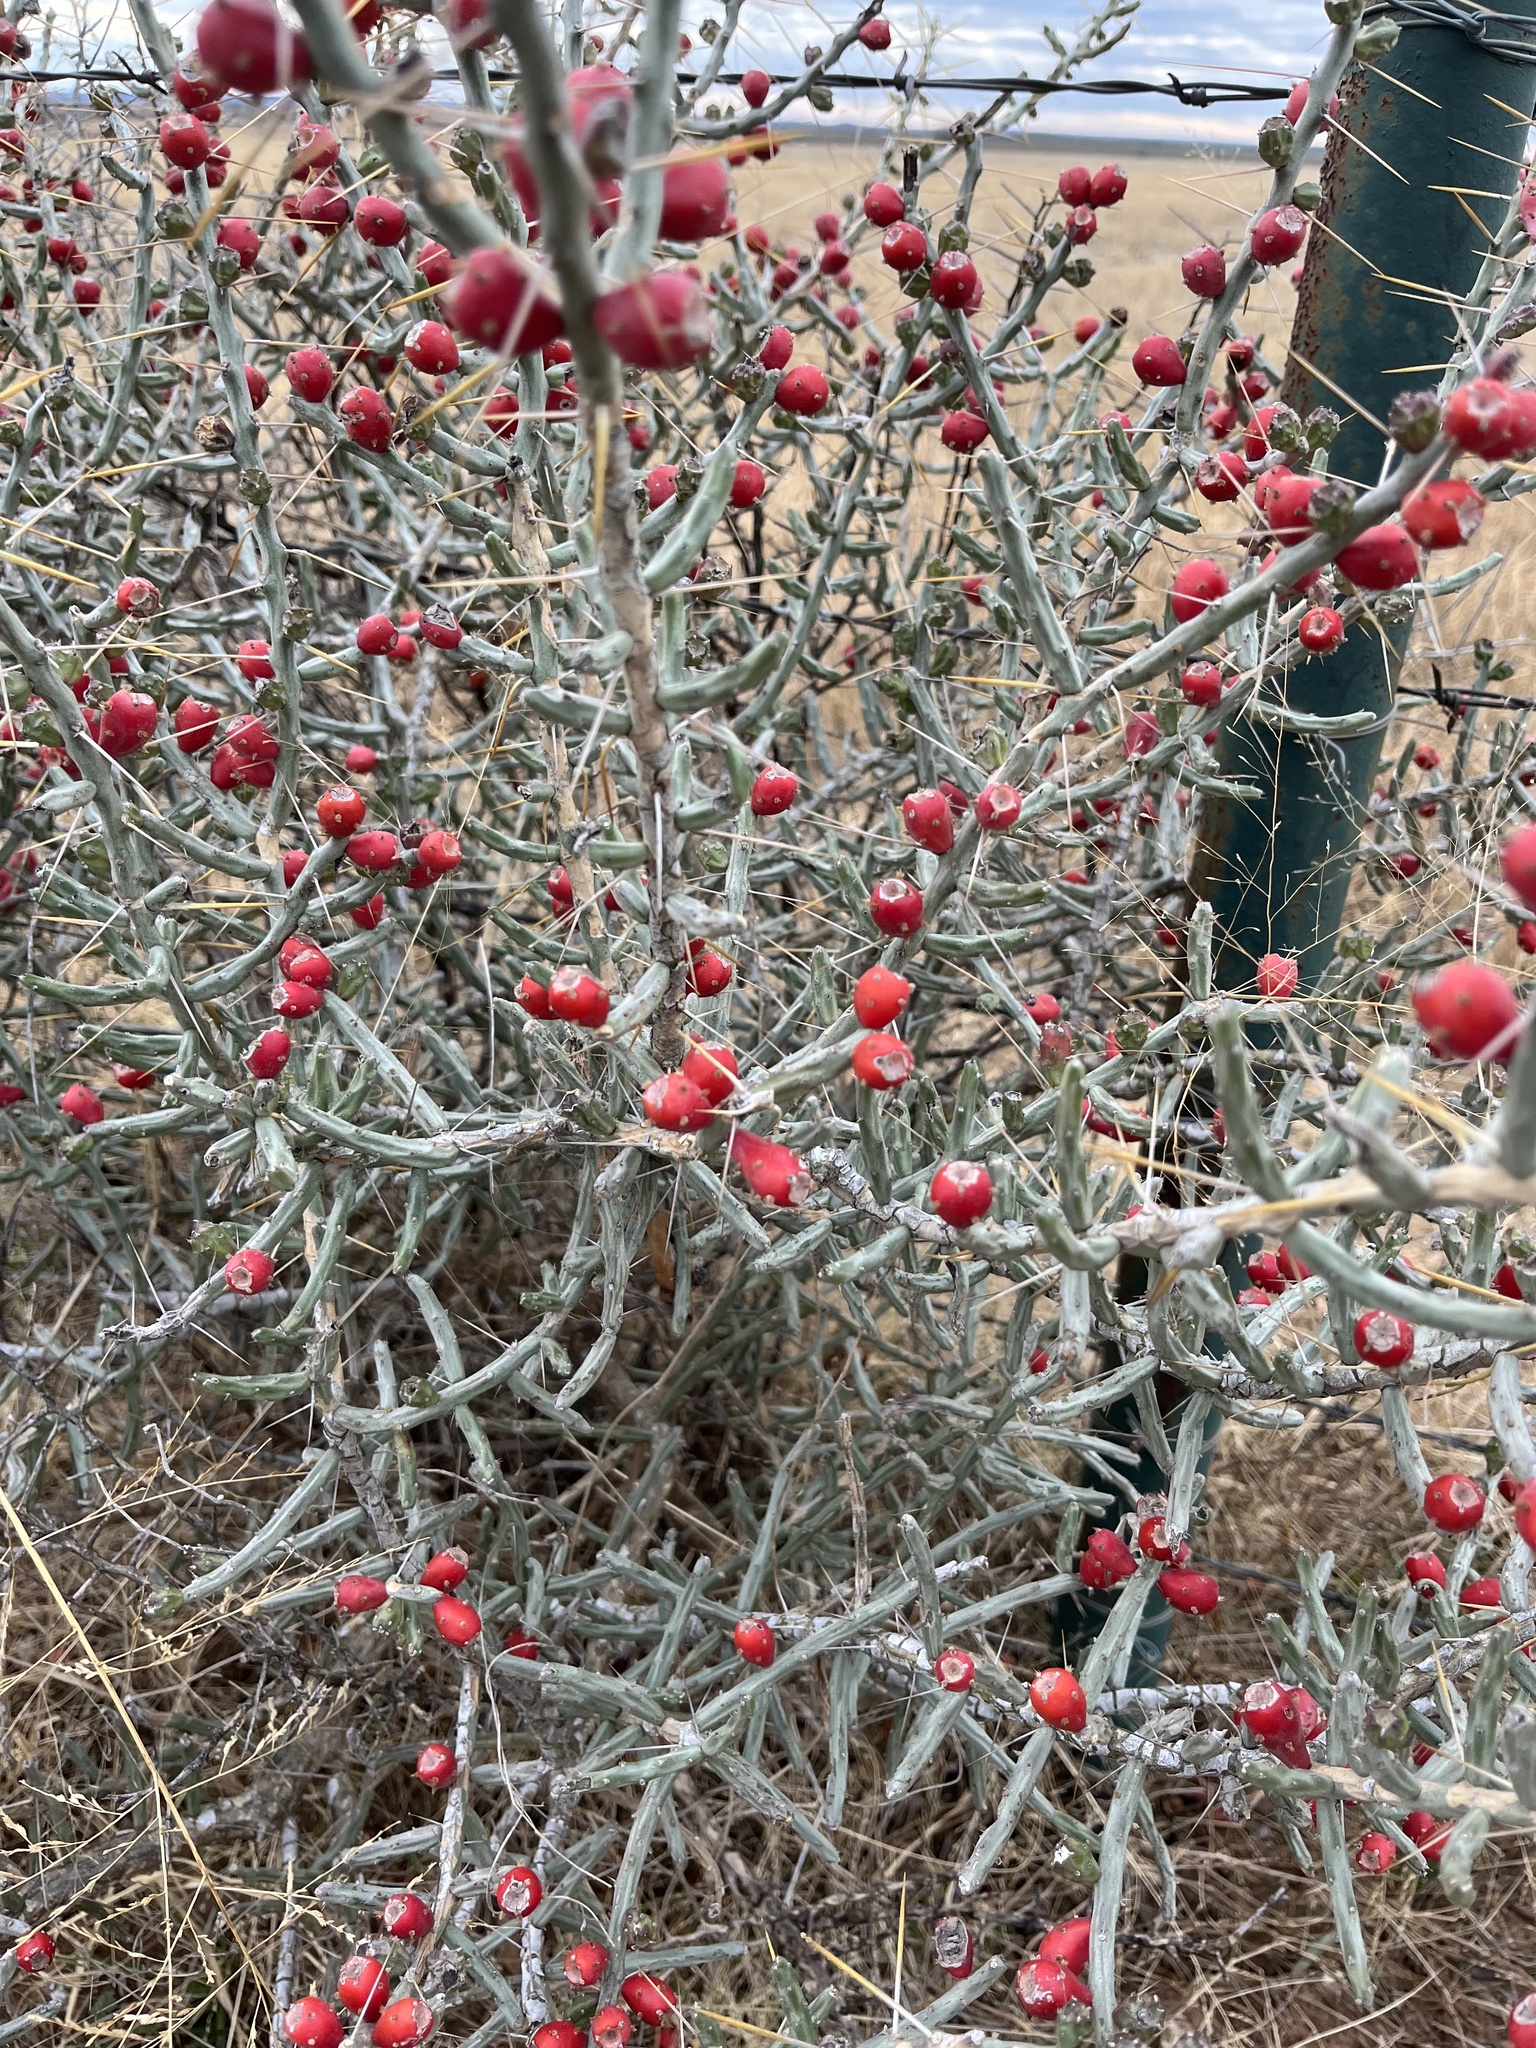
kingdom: Plantae
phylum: Tracheophyta
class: Magnoliopsida
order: Caryophyllales
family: Cactaceae
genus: Cylindropuntia
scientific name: Cylindropuntia leptocaulis
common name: Christmas cactus
